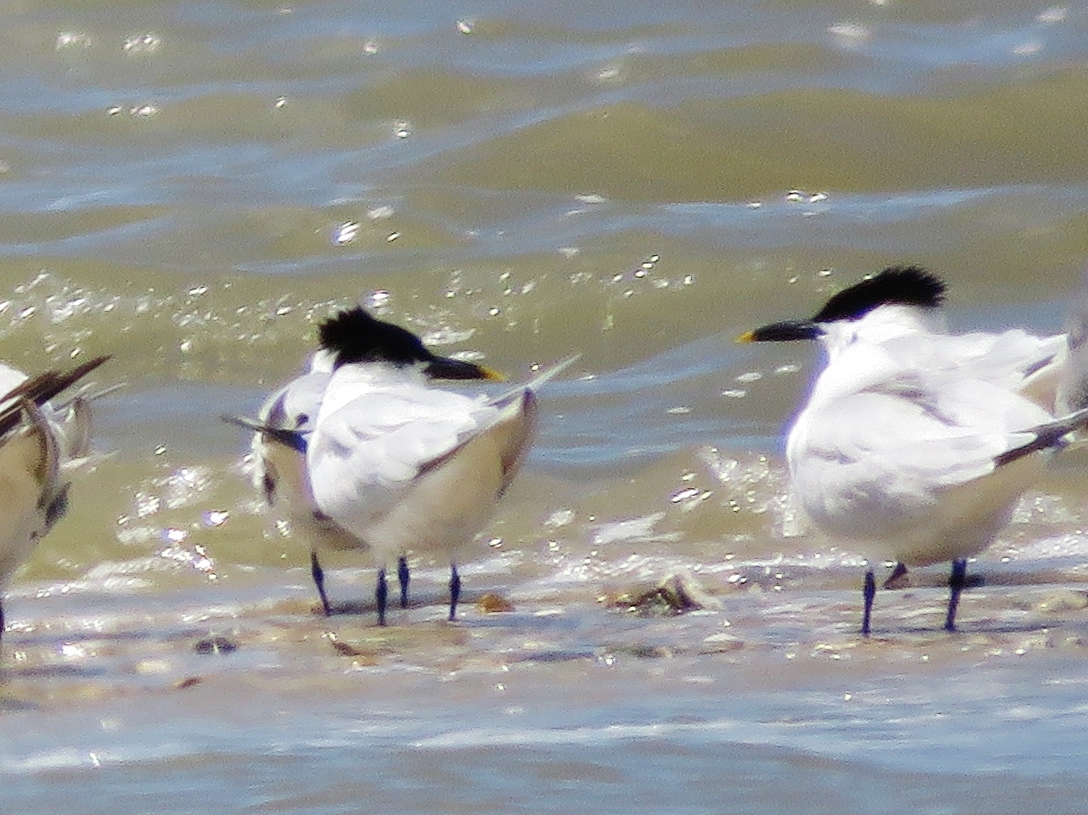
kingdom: Animalia
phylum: Chordata
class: Aves
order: Charadriiformes
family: Laridae
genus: Thalasseus
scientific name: Thalasseus sandvicensis
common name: Sandwich tern
